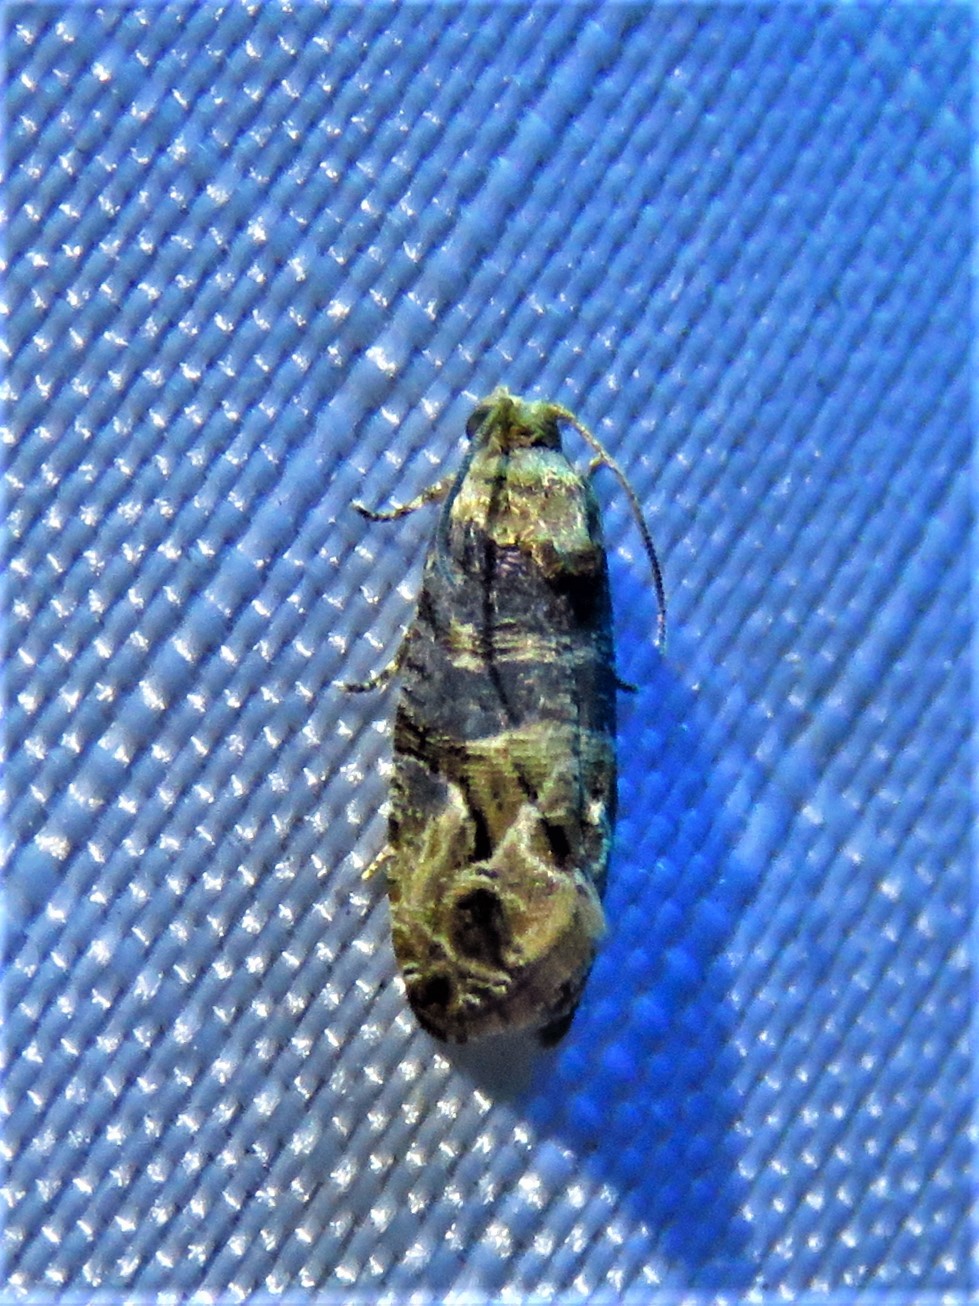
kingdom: Animalia
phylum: Arthropoda
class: Insecta
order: Lepidoptera
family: Tortricidae
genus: Paralobesia
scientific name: Paralobesia viteana
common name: Grape berry moth
